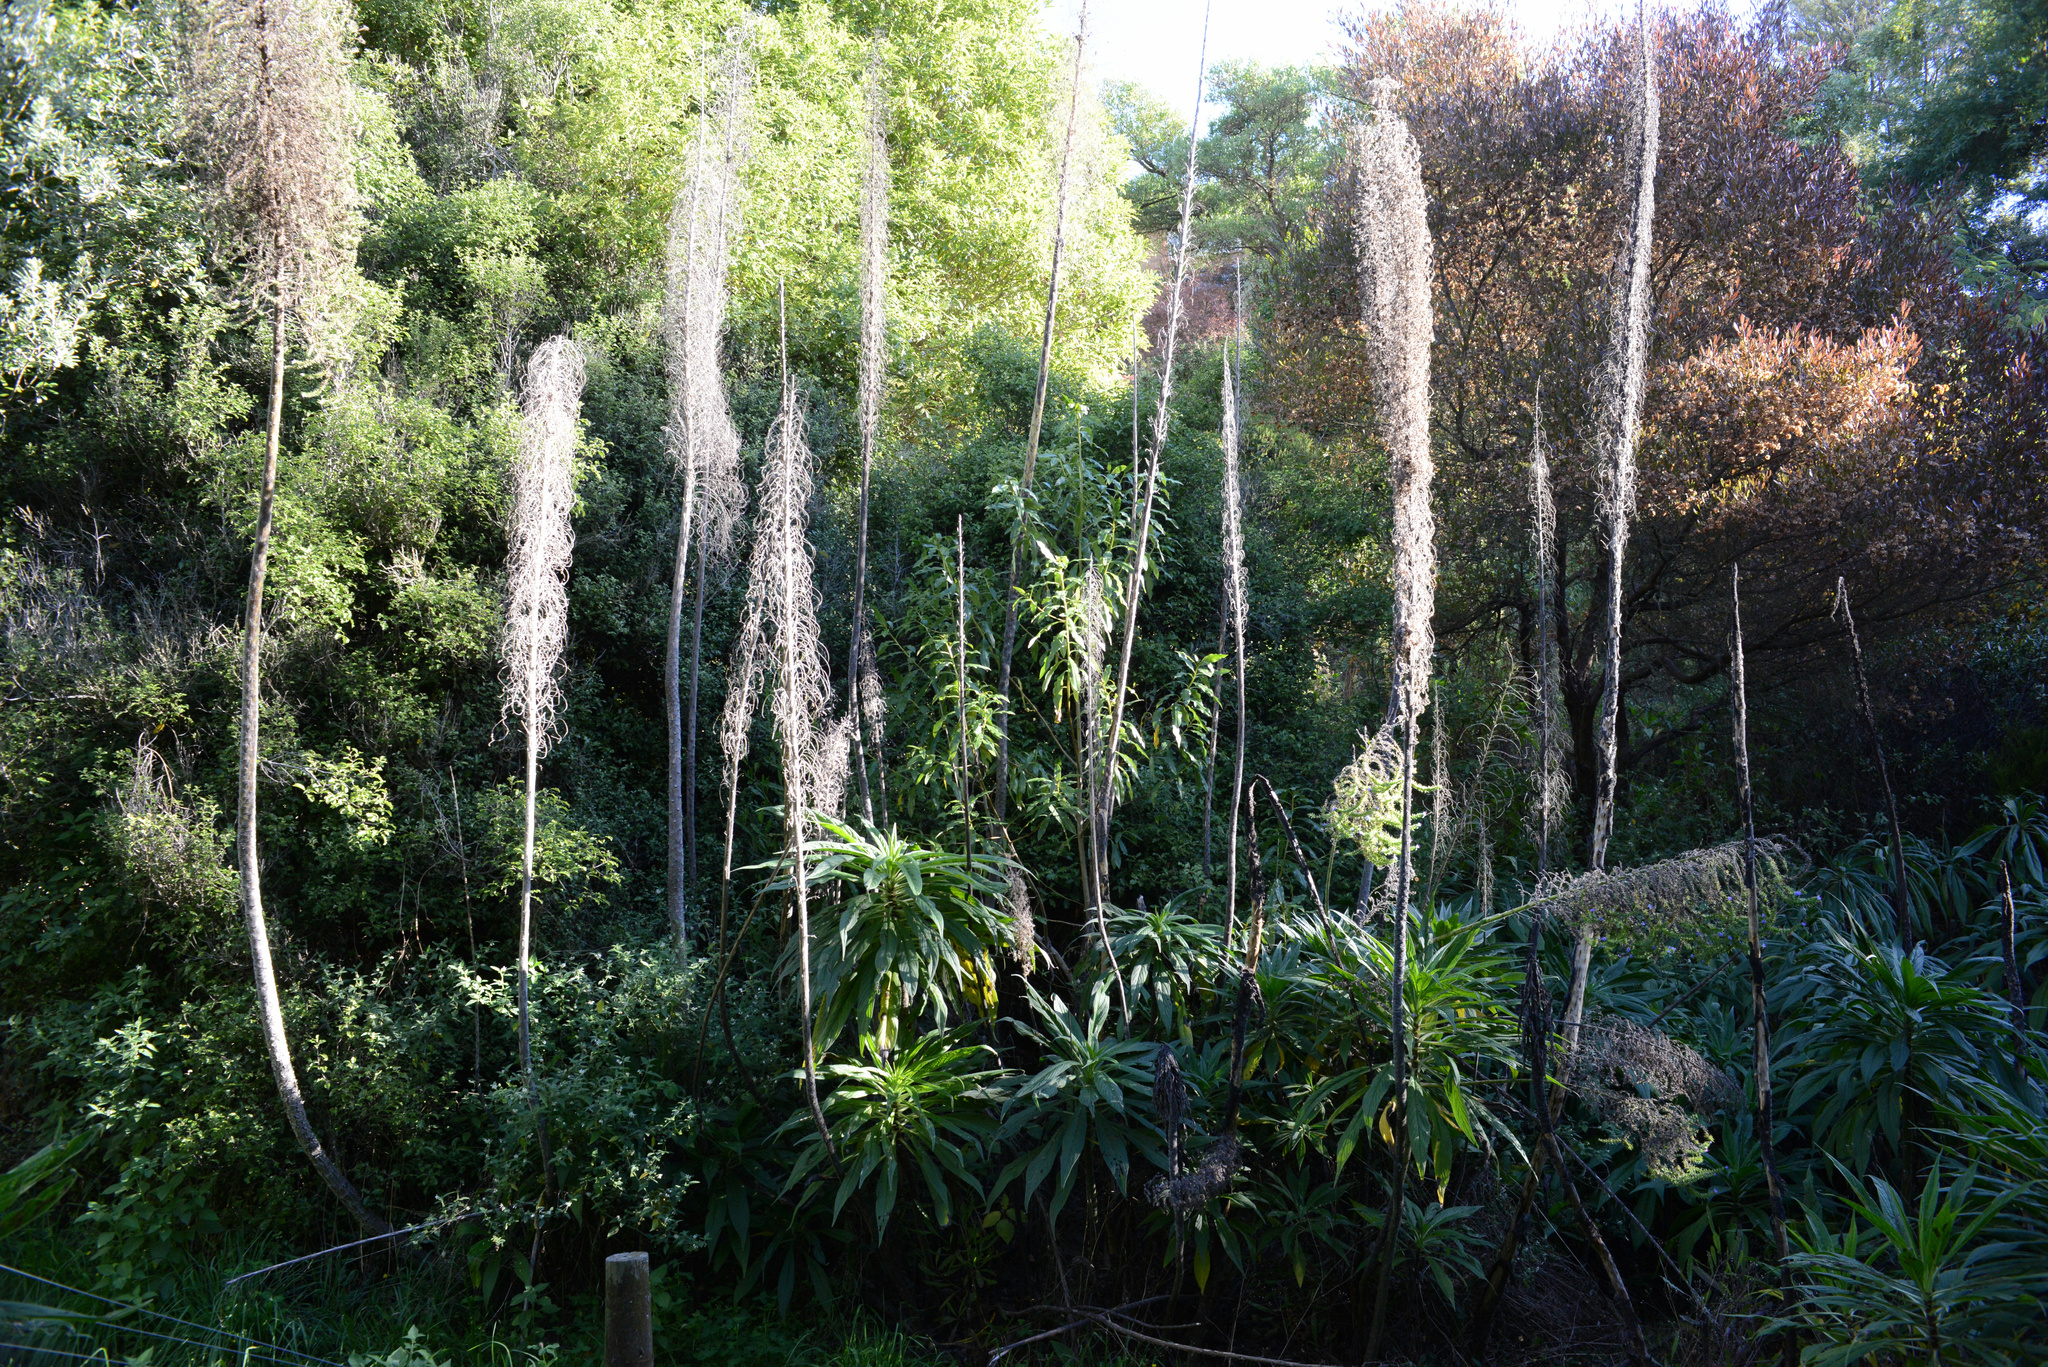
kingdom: Plantae
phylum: Tracheophyta
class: Magnoliopsida
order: Boraginales
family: Boraginaceae
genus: Echium
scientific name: Echium pininana
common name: Giant viper's-bugloss
